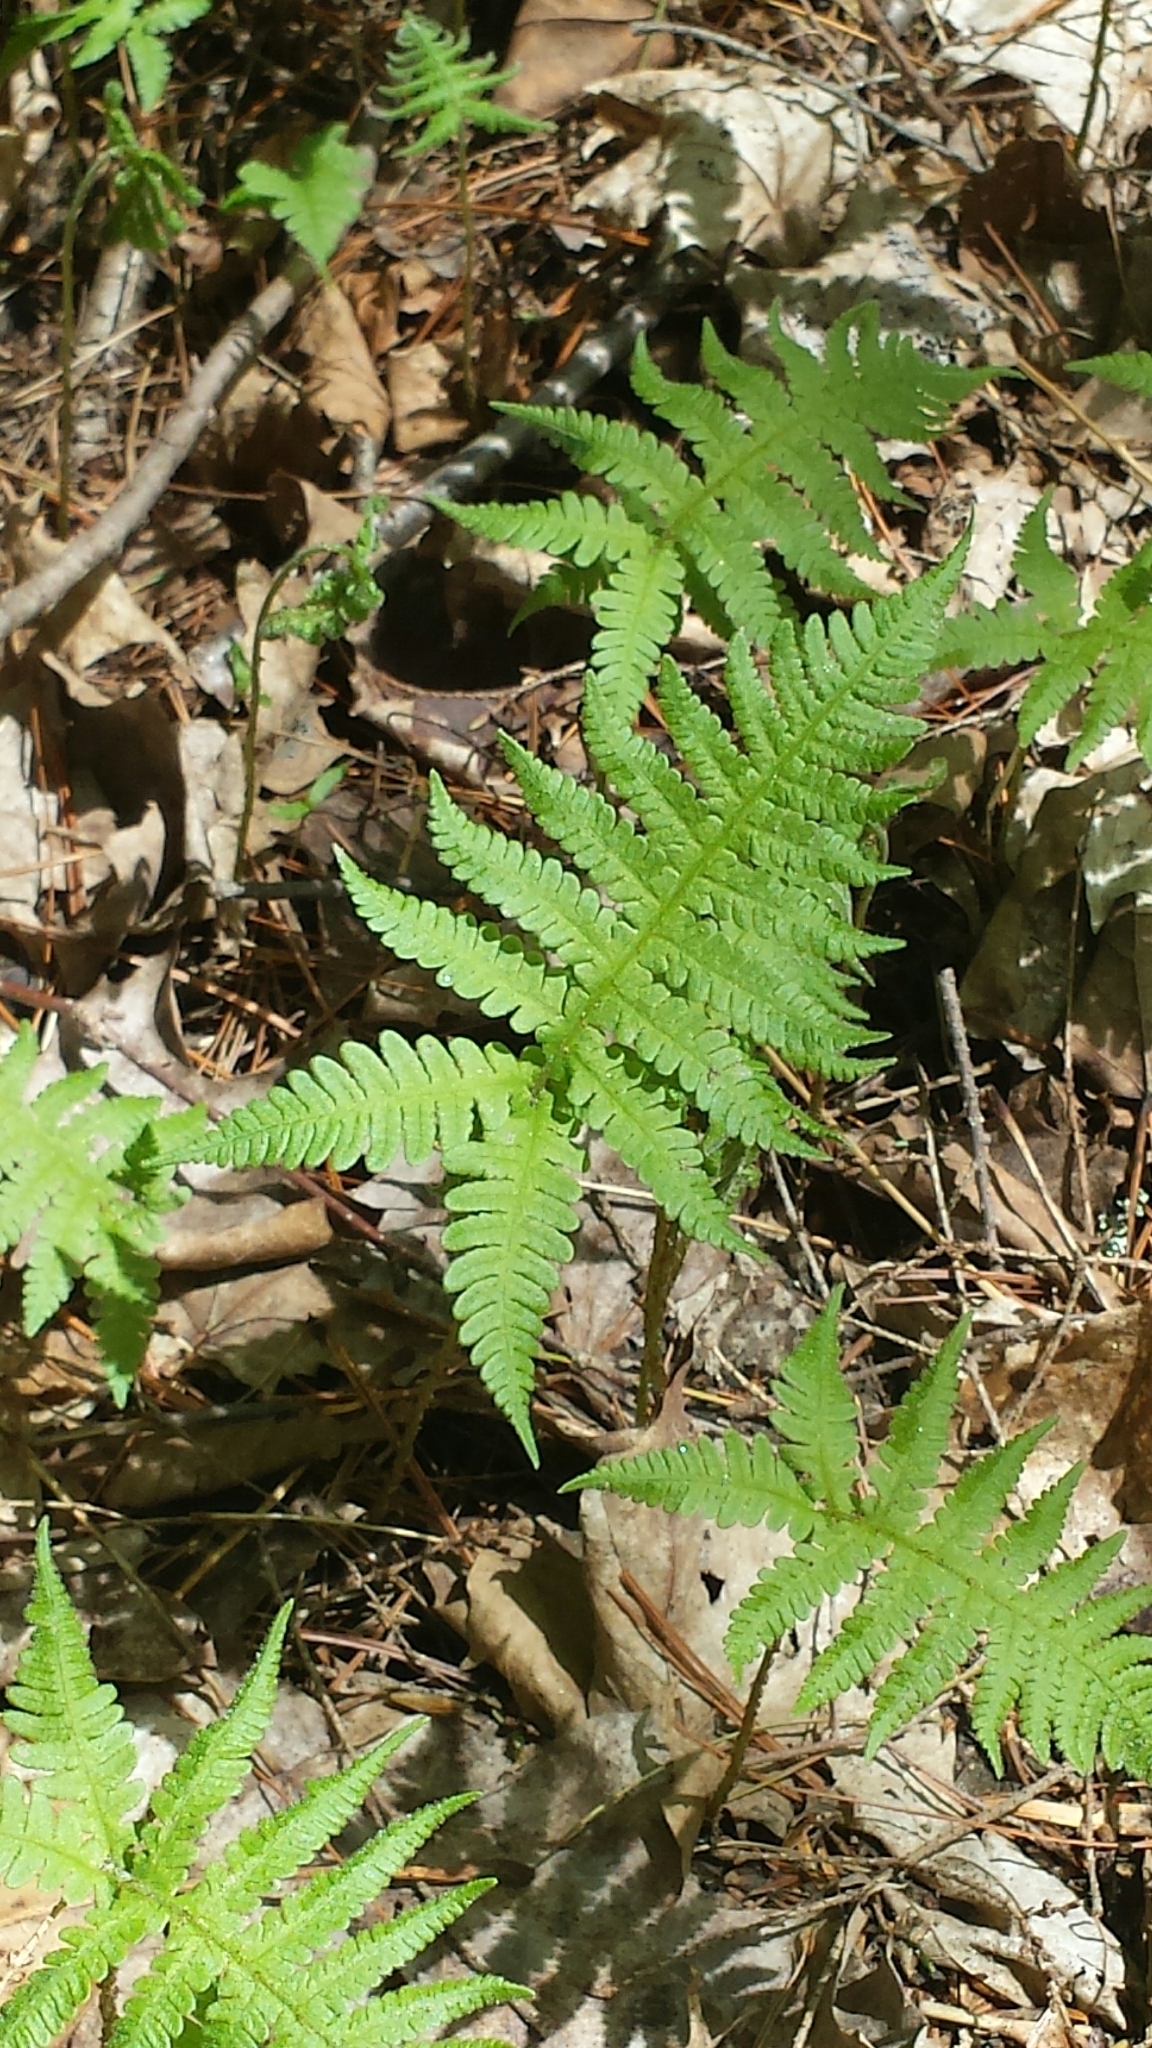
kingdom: Plantae
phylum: Tracheophyta
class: Polypodiopsida
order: Polypodiales
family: Thelypteridaceae
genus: Phegopteris
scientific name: Phegopteris connectilis
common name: Beech fern
